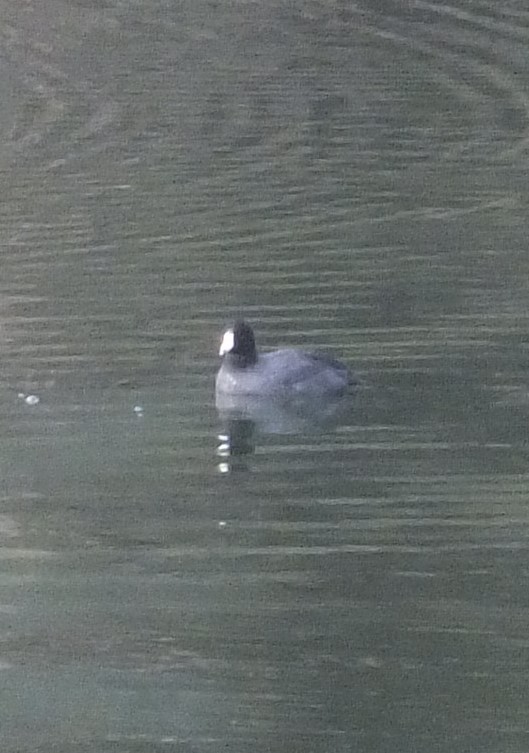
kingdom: Animalia
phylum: Chordata
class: Aves
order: Gruiformes
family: Rallidae
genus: Fulica
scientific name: Fulica americana
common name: American coot
